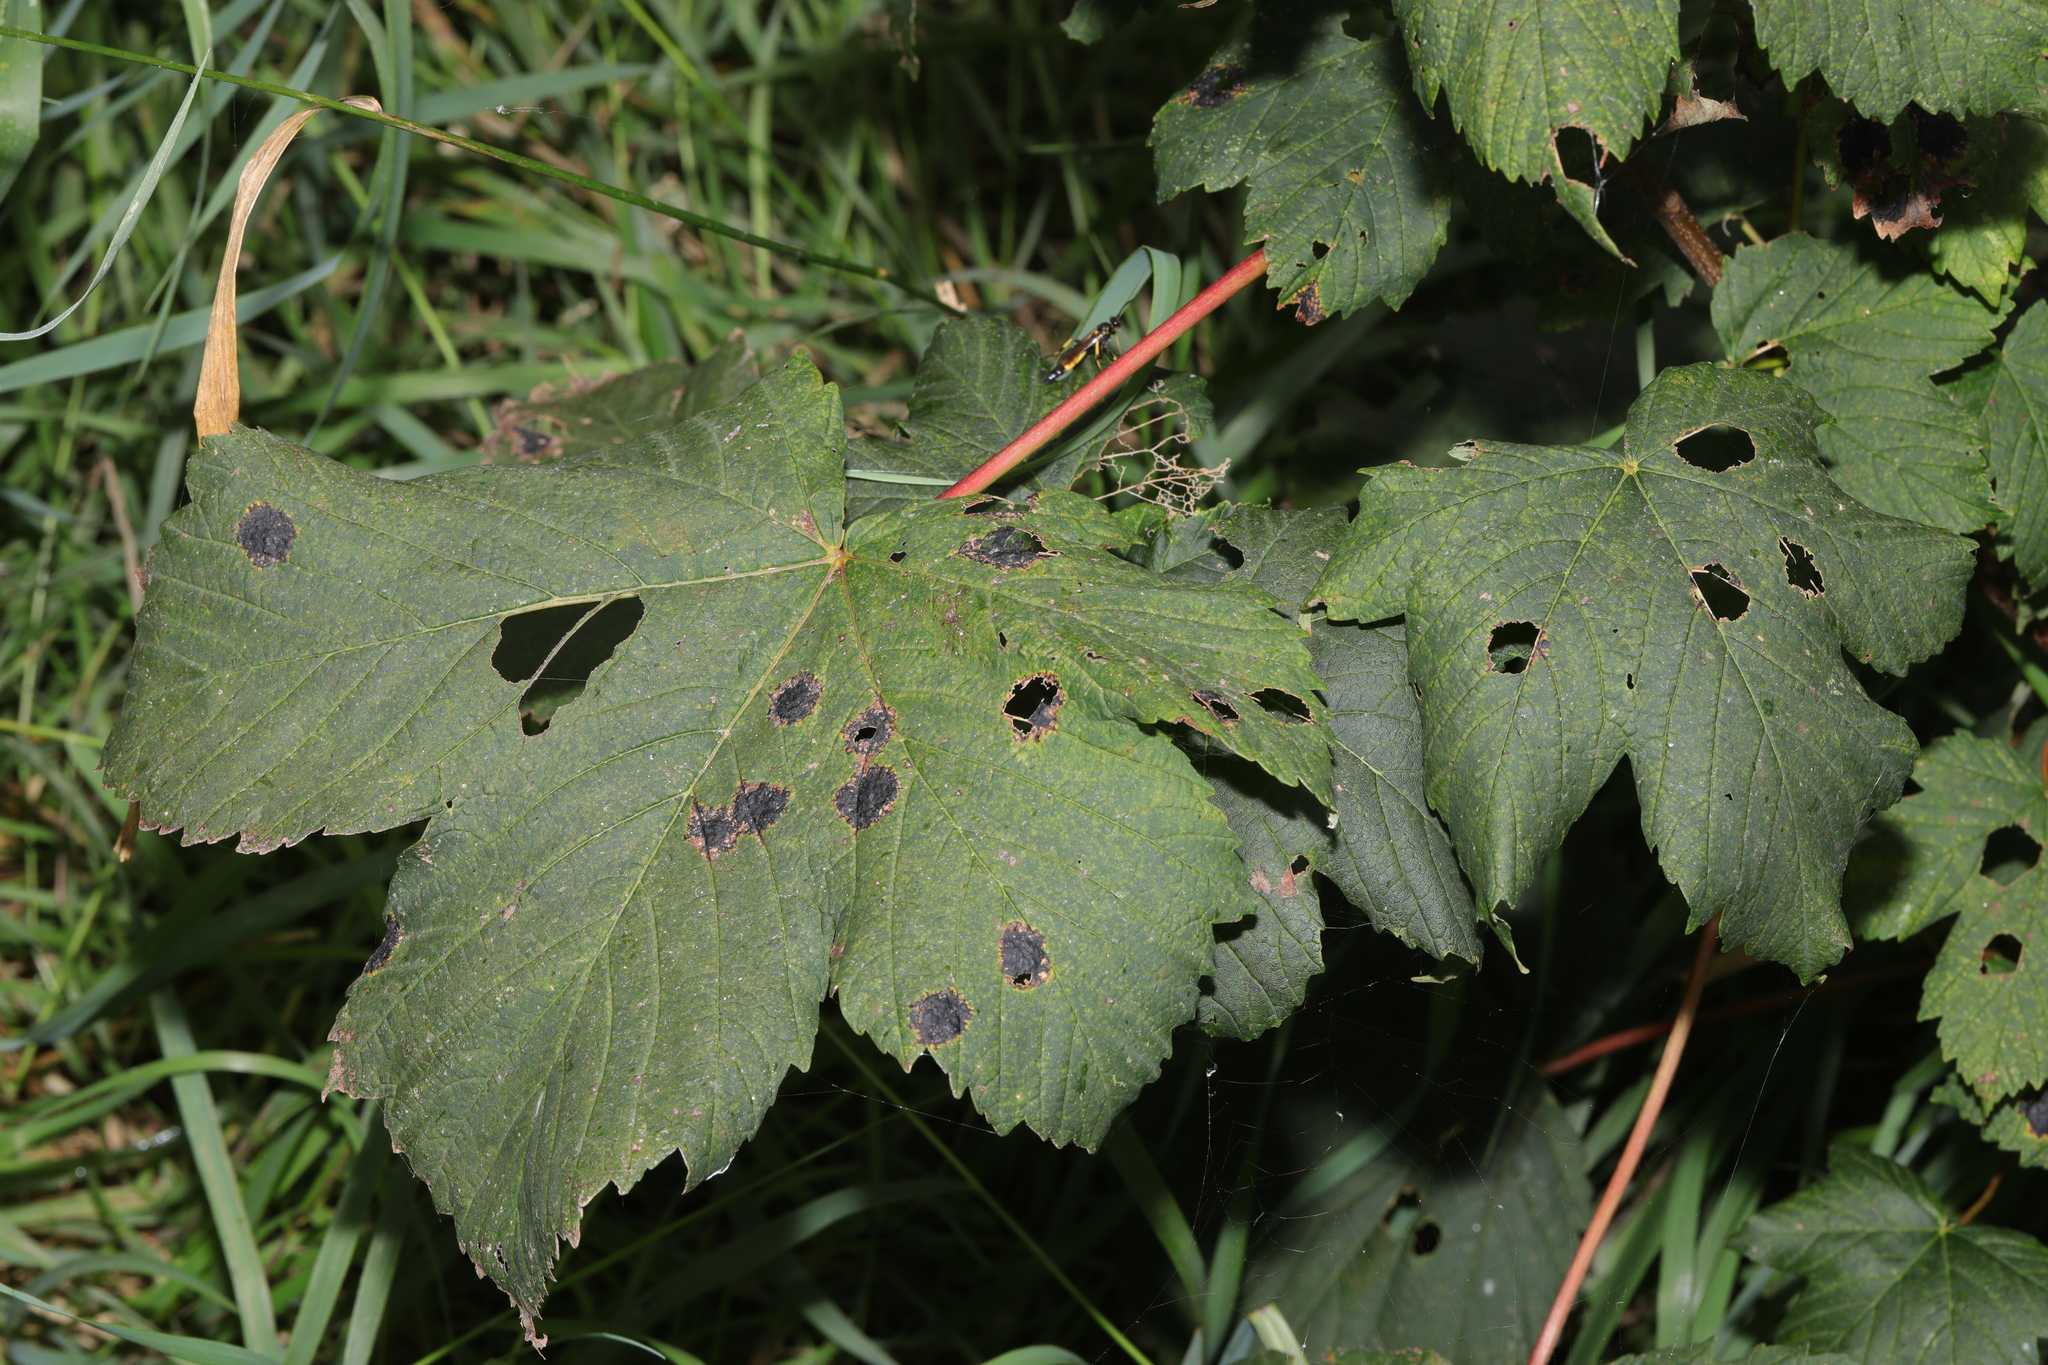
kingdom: Plantae
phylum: Tracheophyta
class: Magnoliopsida
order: Sapindales
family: Sapindaceae
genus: Acer
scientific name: Acer pseudoplatanus
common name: Sycamore
